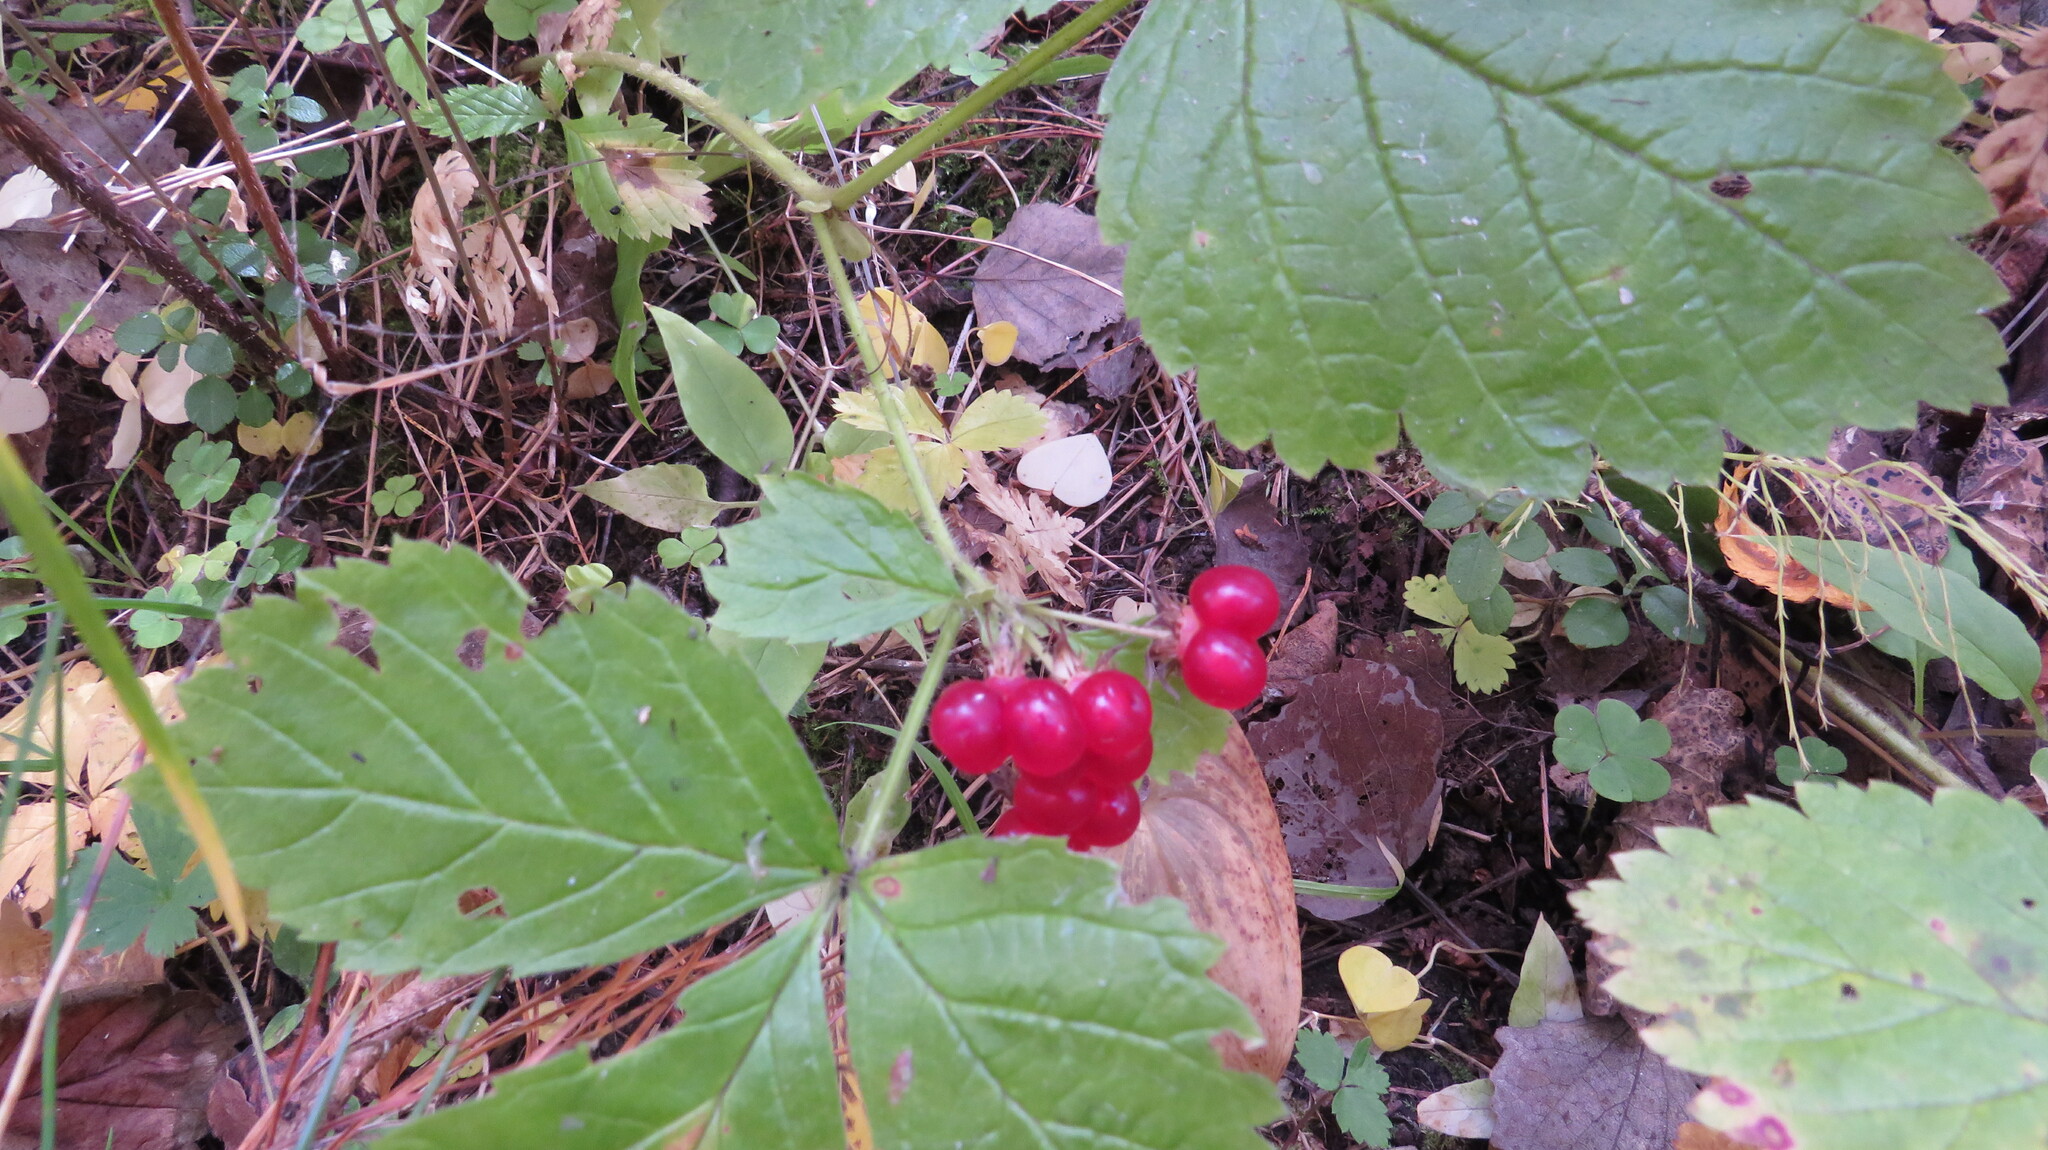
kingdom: Plantae
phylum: Tracheophyta
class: Magnoliopsida
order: Rosales
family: Rosaceae
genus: Rubus
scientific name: Rubus saxatilis
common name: Stone bramble
